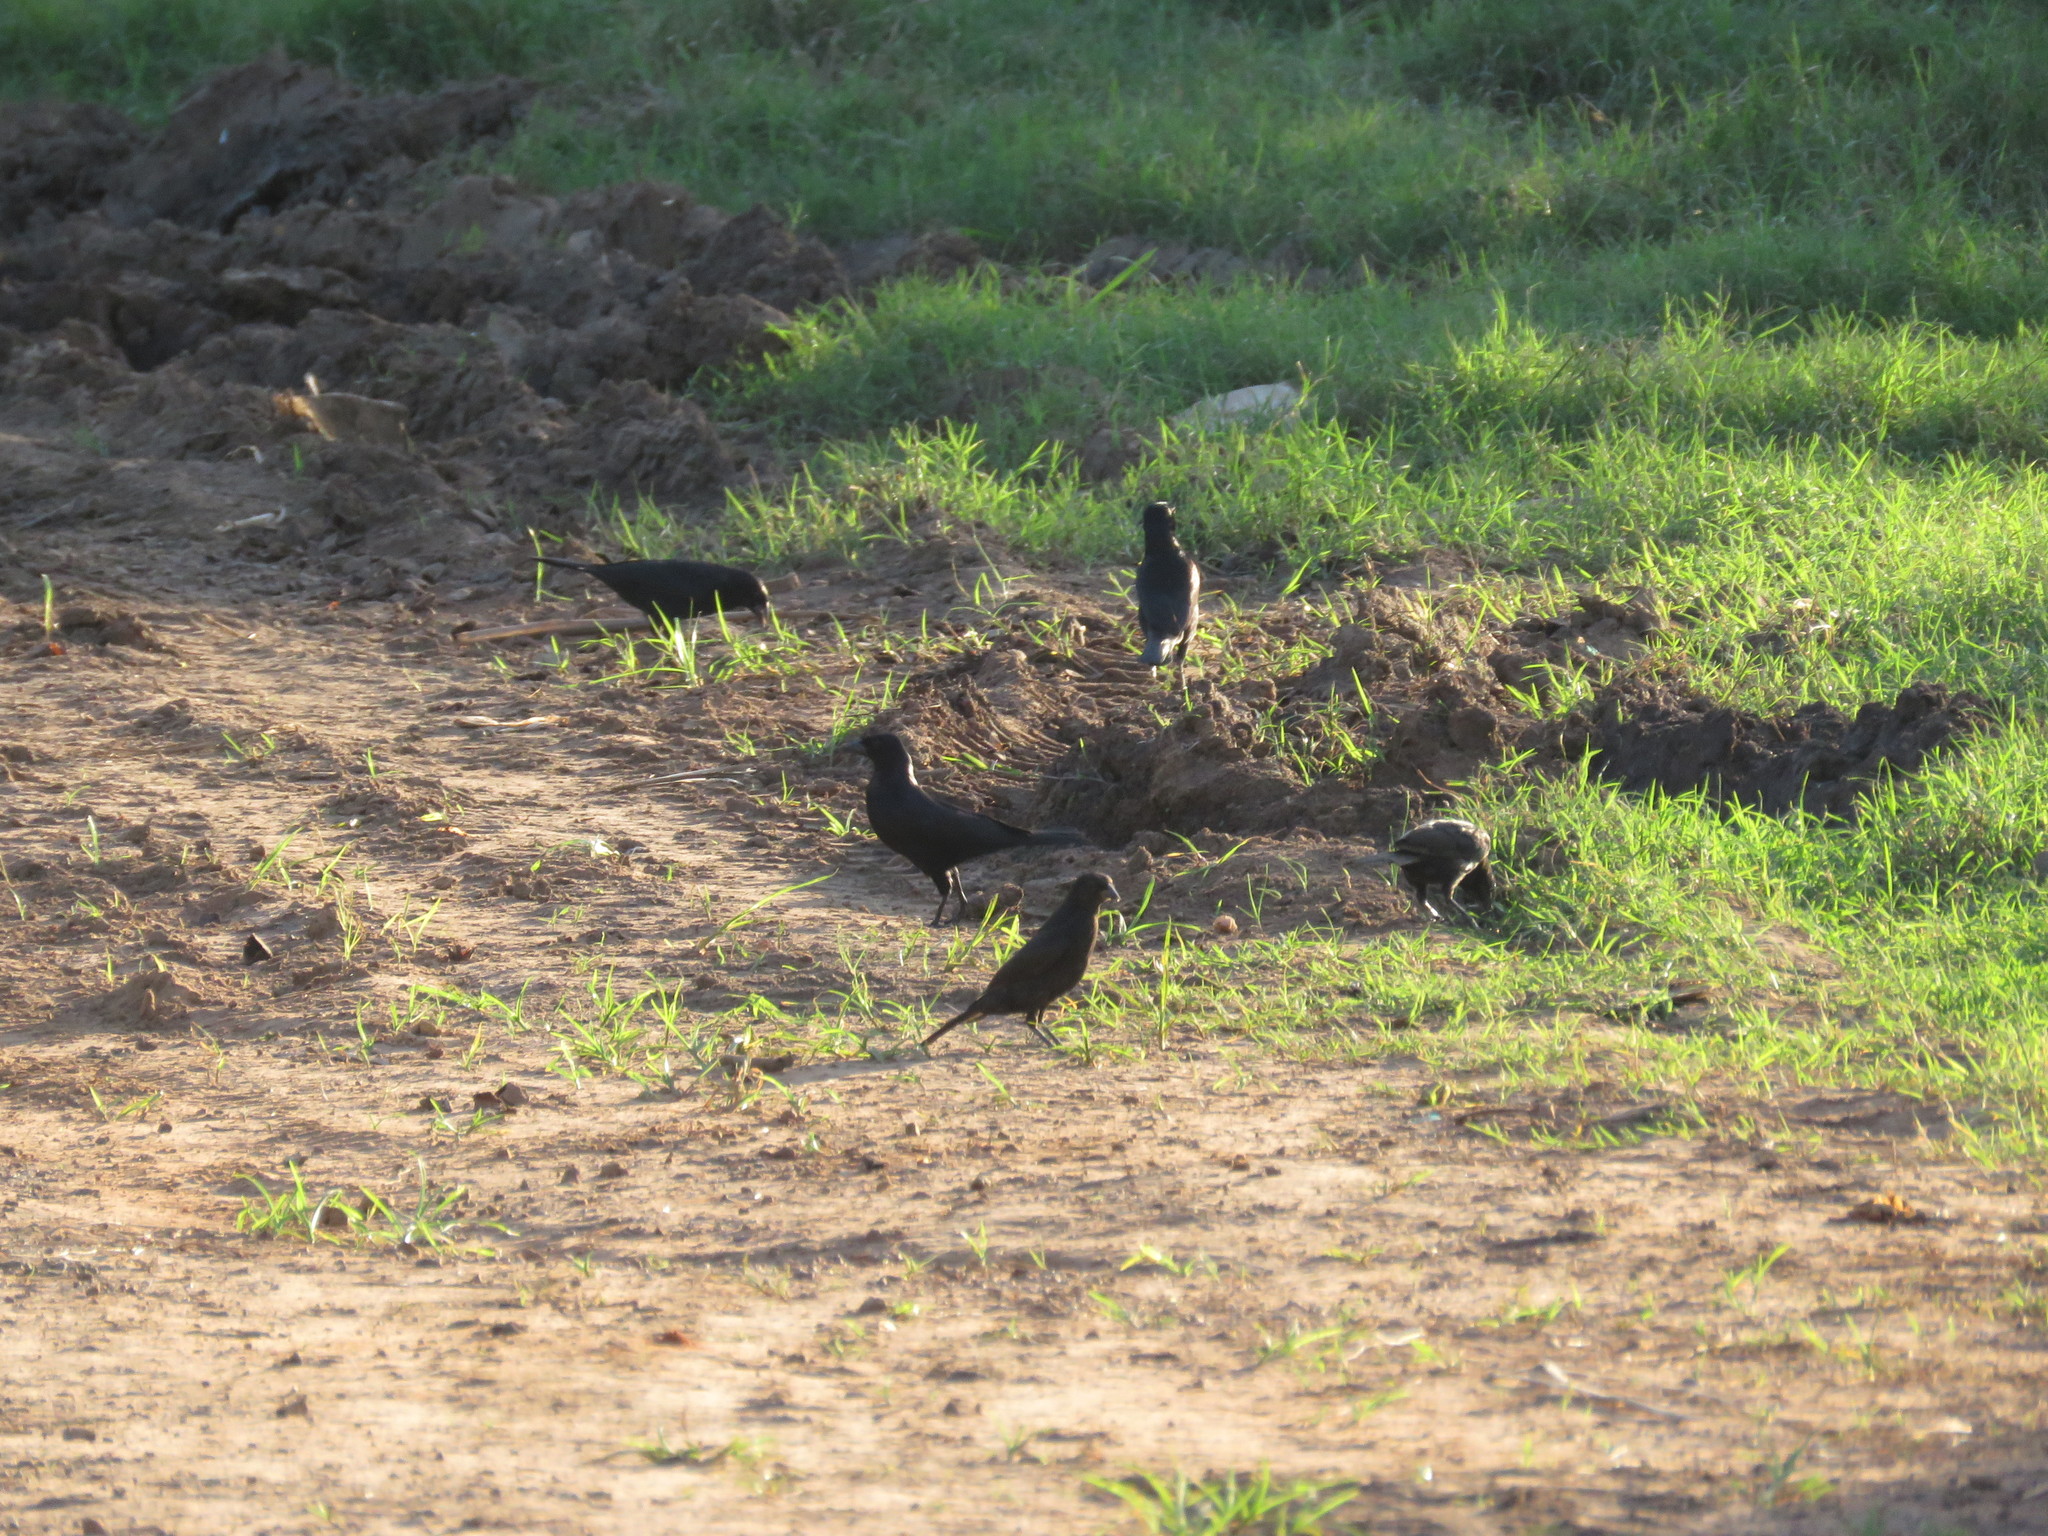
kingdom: Animalia
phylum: Chordata
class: Aves
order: Passeriformes
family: Icteridae
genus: Molothrus
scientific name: Molothrus bonariensis
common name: Shiny cowbird
